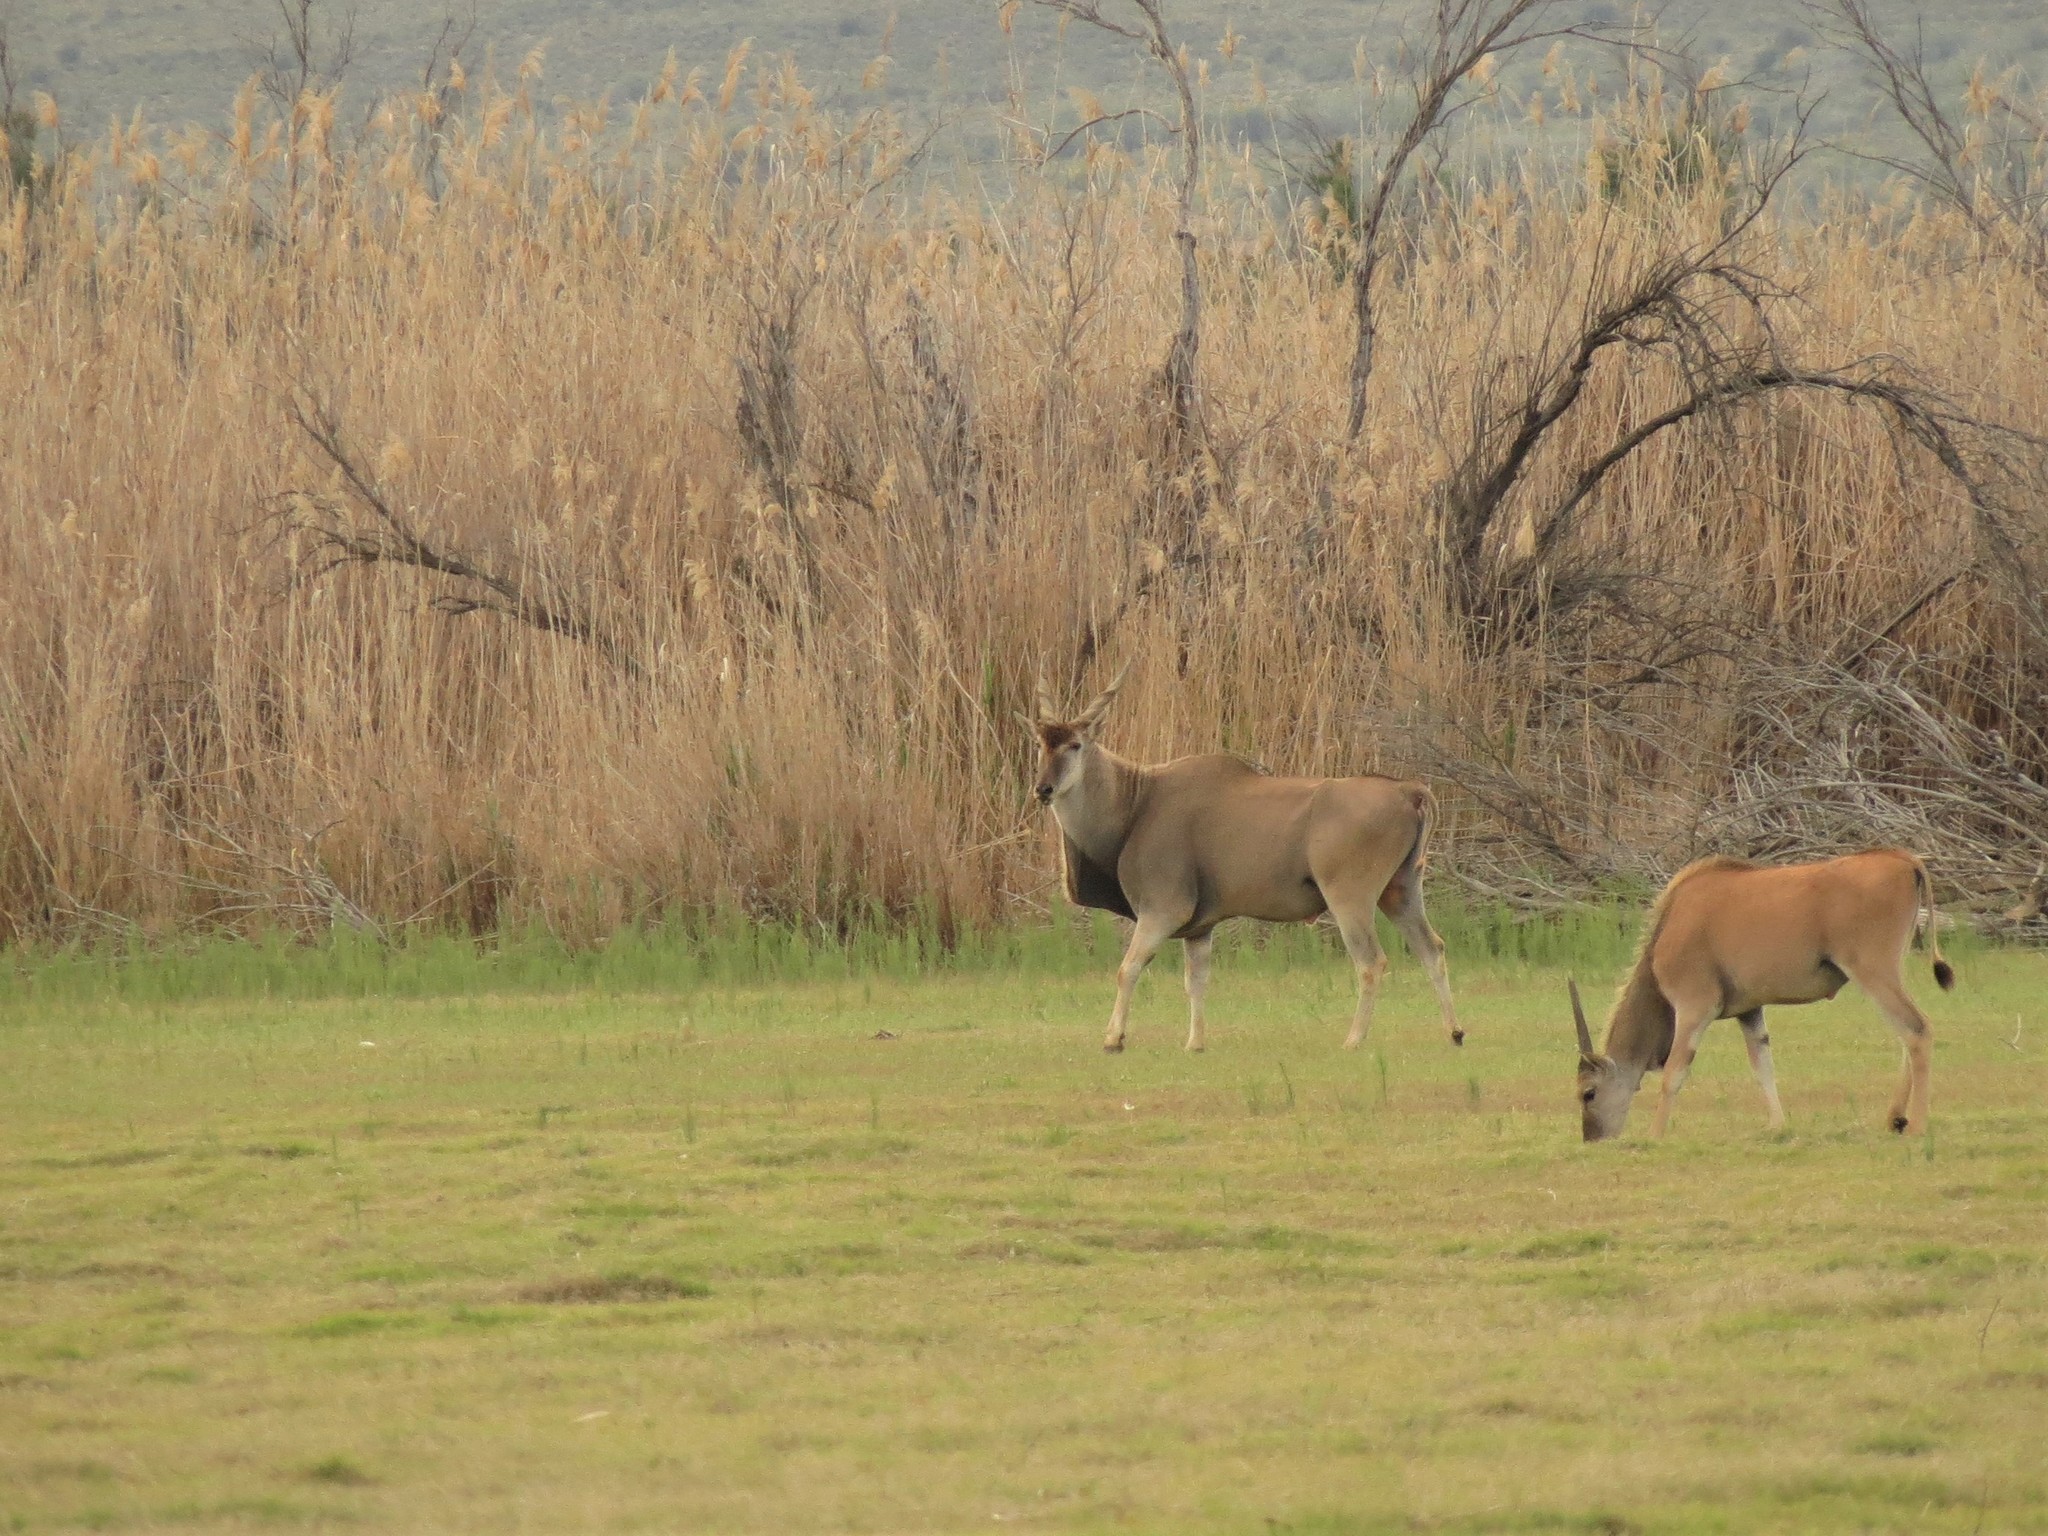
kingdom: Animalia
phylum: Chordata
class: Mammalia
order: Artiodactyla
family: Bovidae
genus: Taurotragus
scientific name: Taurotragus oryx
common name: Common eland
